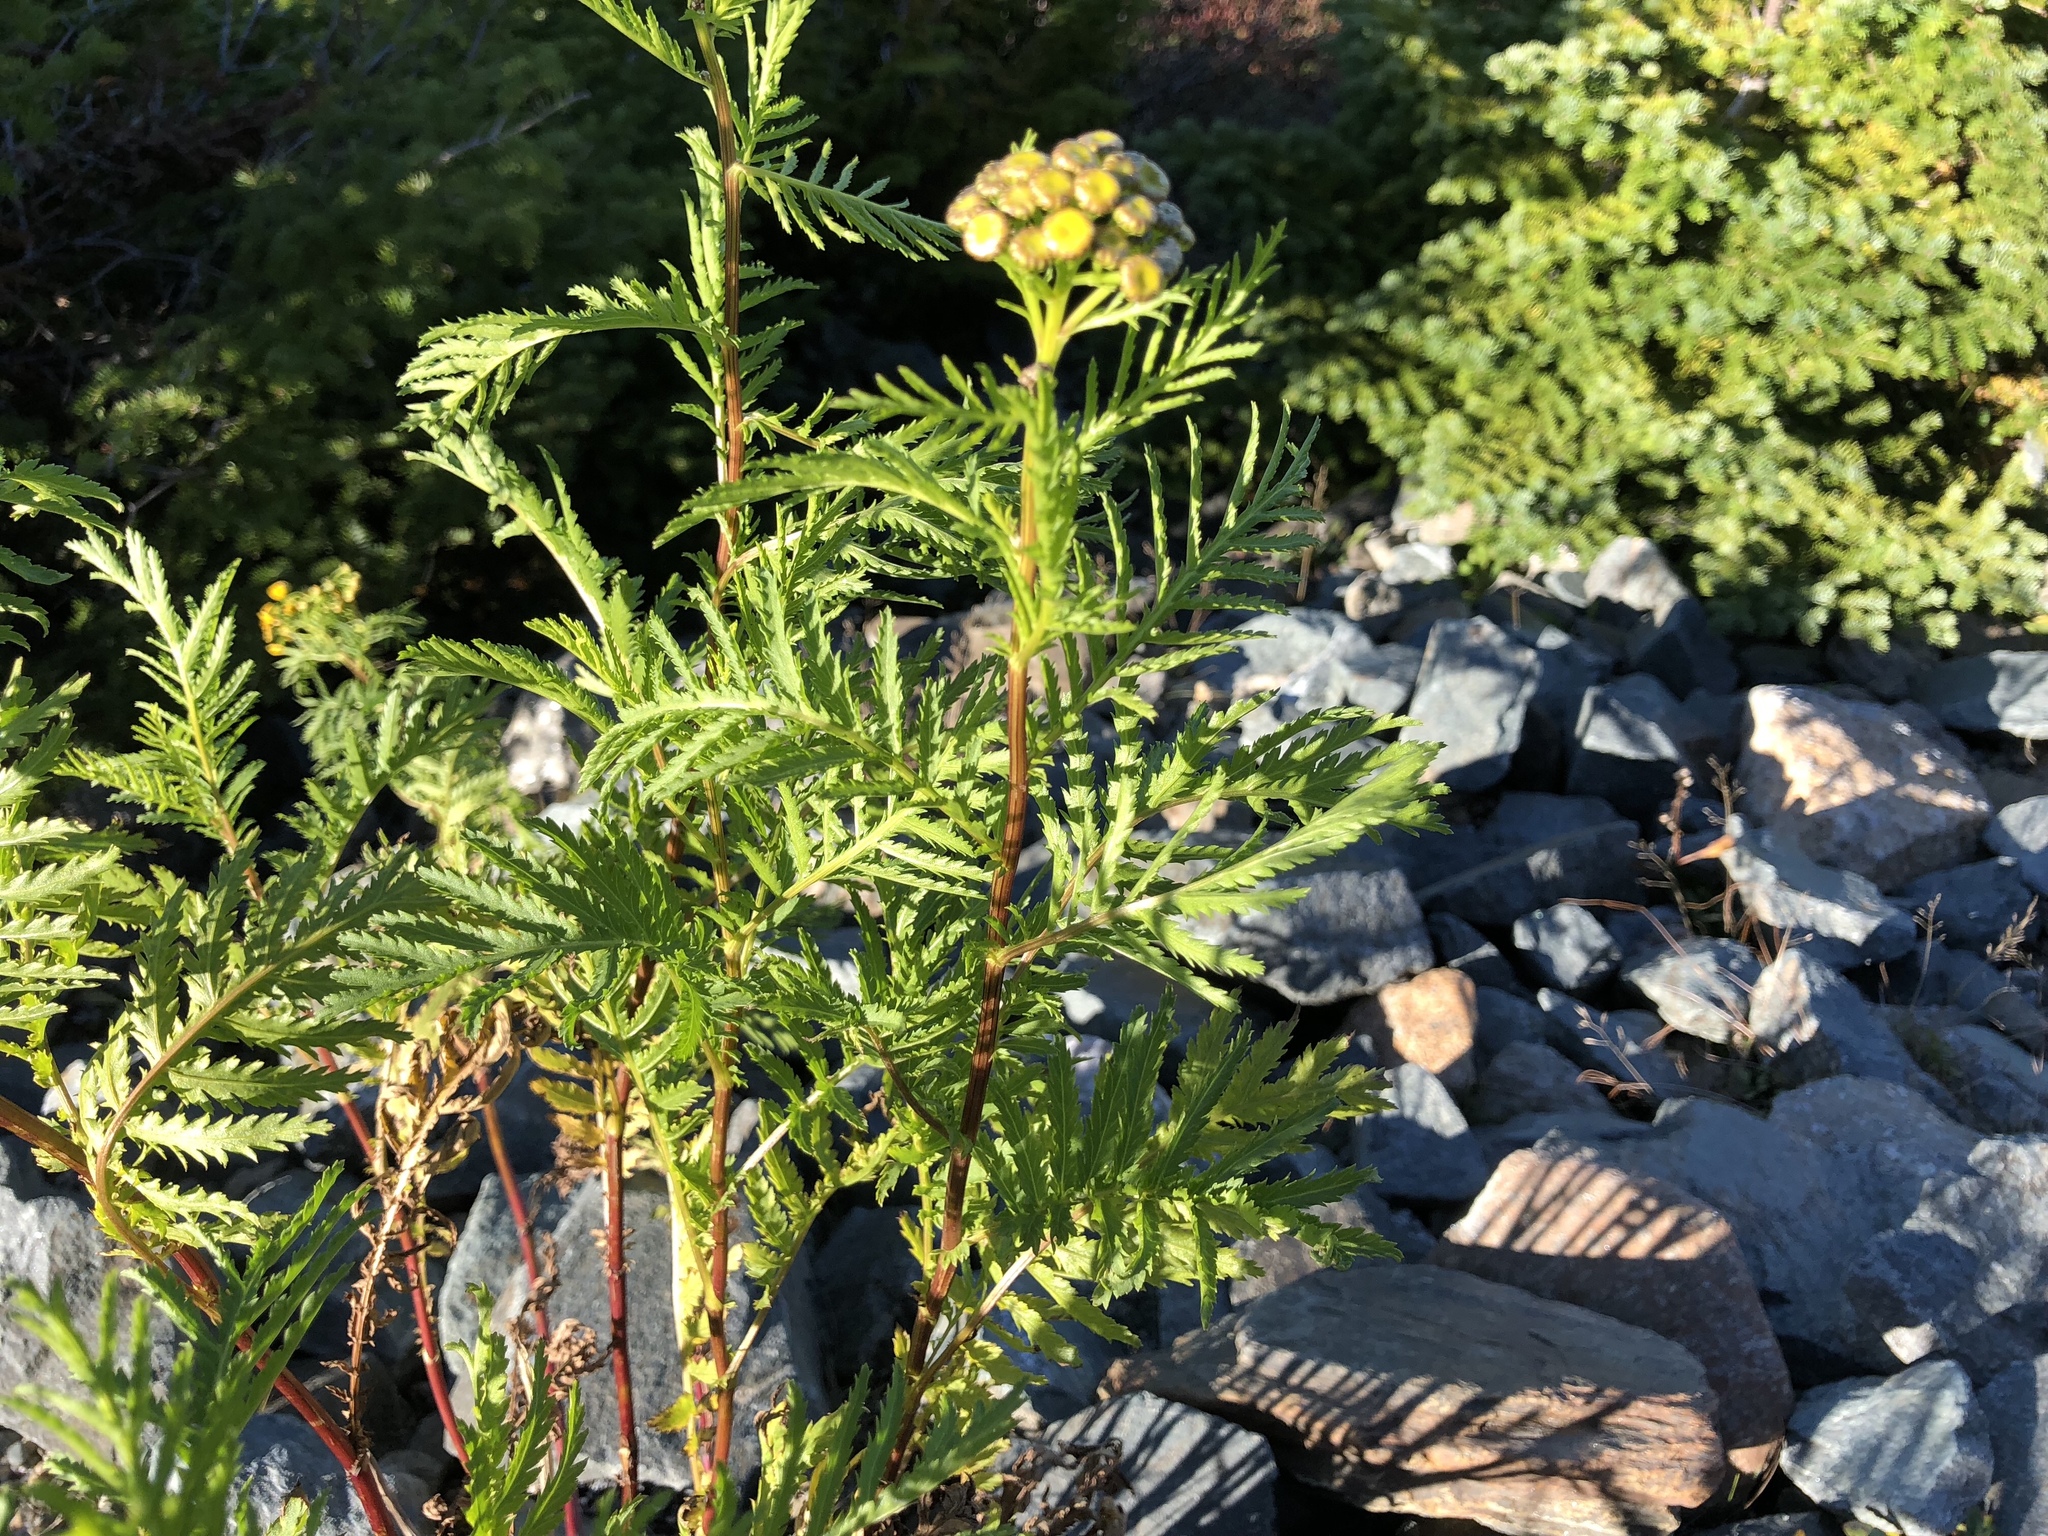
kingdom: Plantae
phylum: Tracheophyta
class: Magnoliopsida
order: Asterales
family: Asteraceae
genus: Tanacetum
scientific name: Tanacetum vulgare
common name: Common tansy
